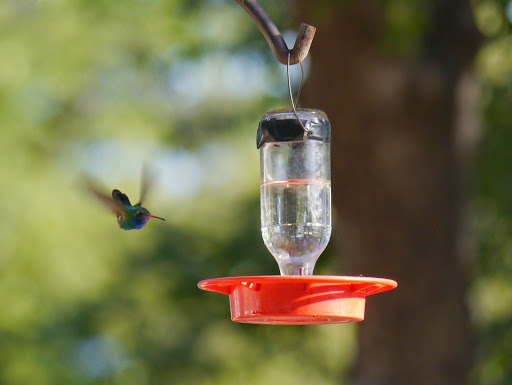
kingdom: Animalia
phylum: Chordata
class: Aves
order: Apodiformes
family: Trochilidae
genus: Cynanthus
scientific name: Cynanthus latirostris
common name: Broad-billed hummingbird
